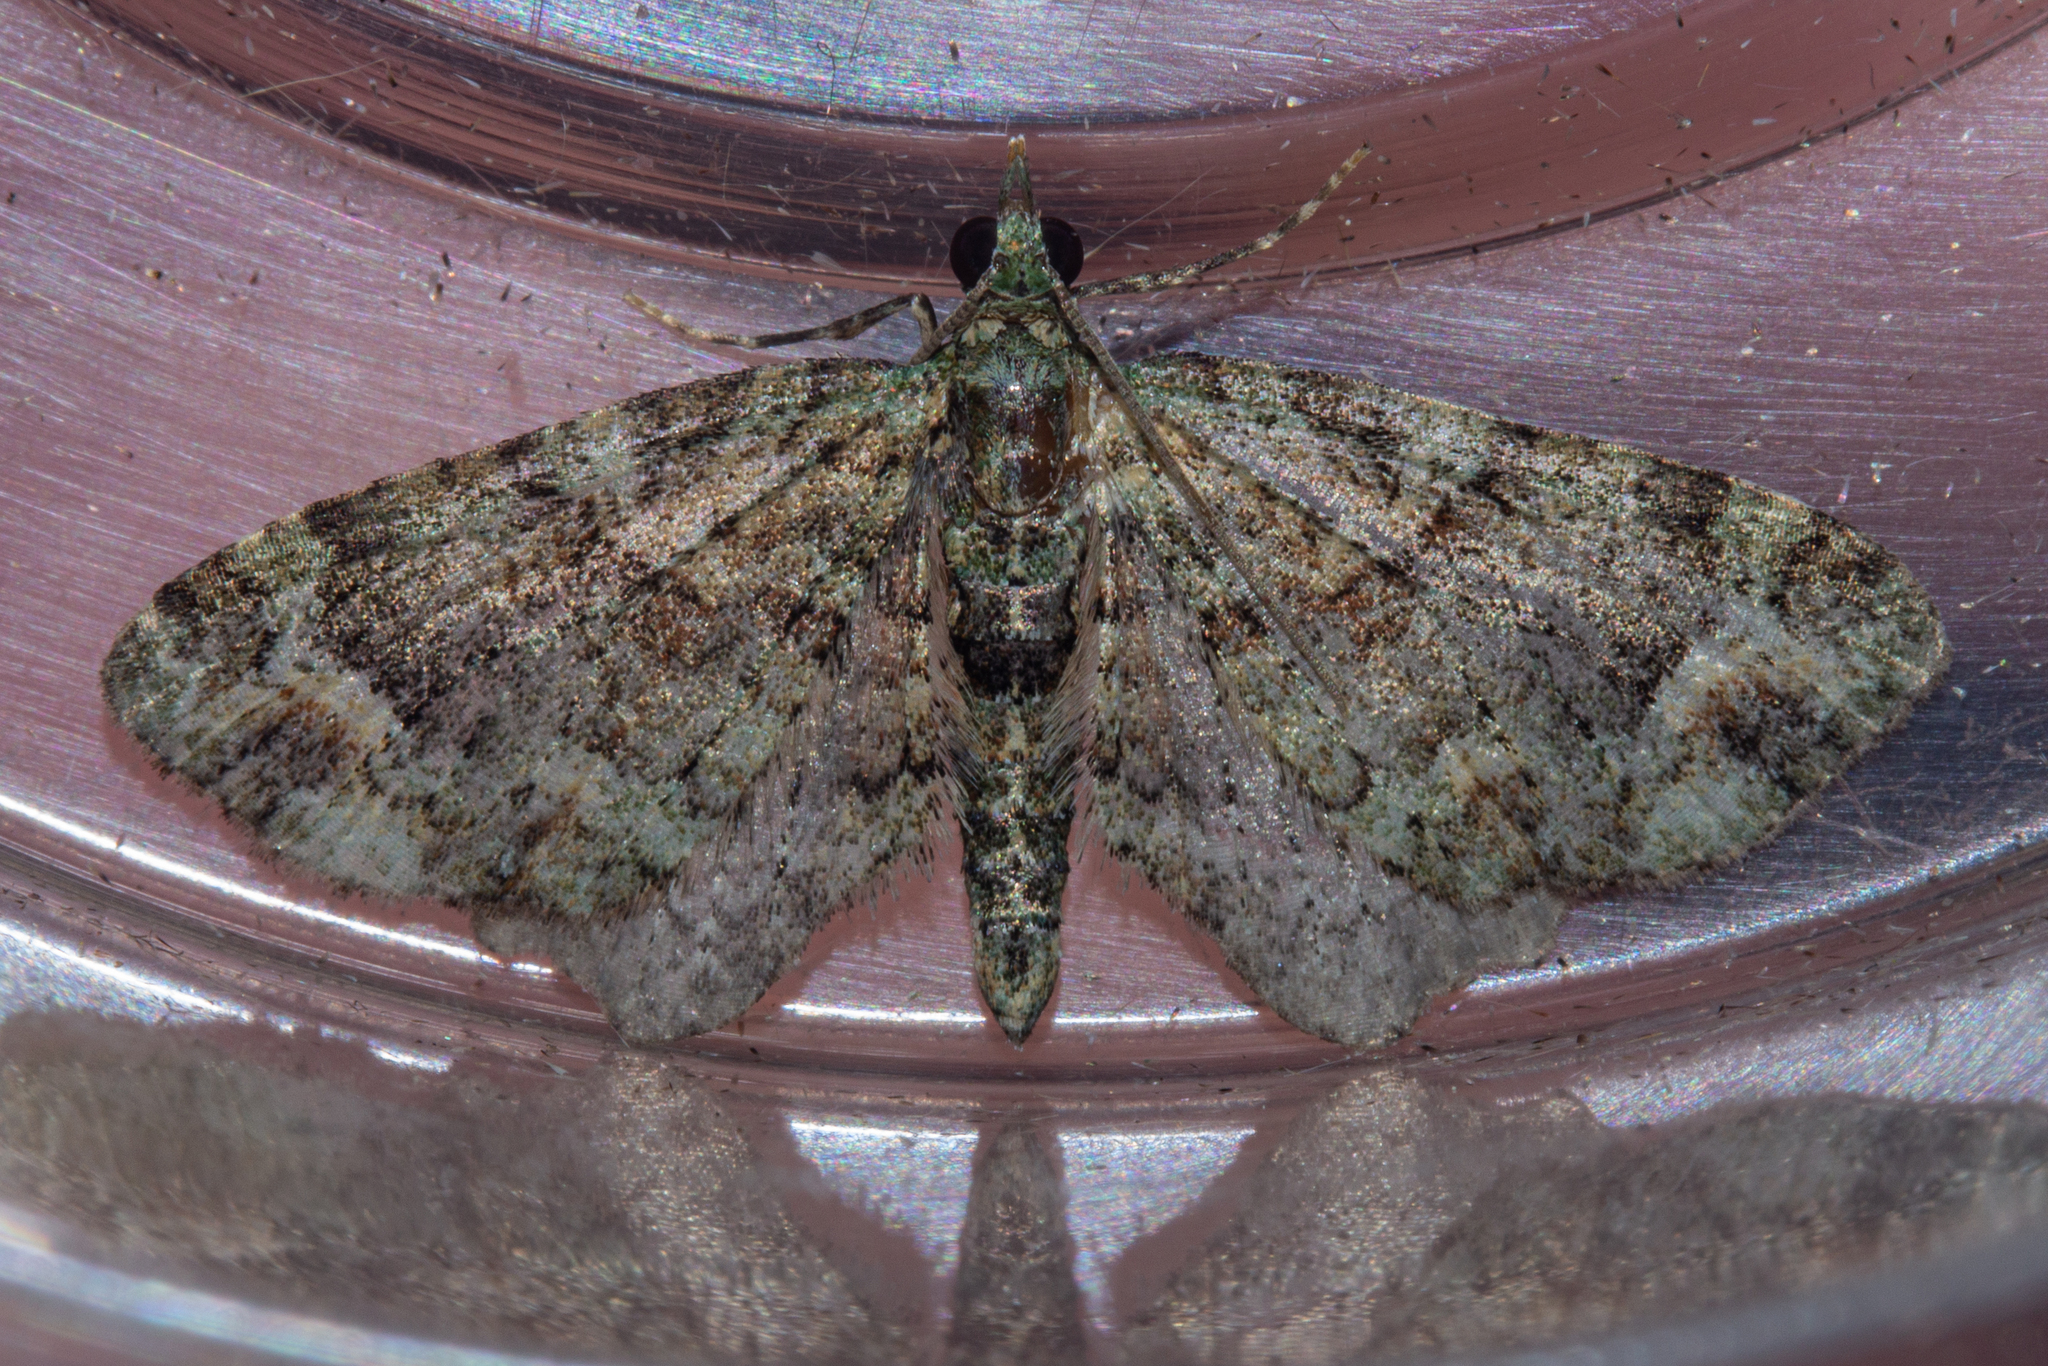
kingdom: Animalia
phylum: Arthropoda
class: Insecta
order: Lepidoptera
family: Geometridae
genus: Idaea
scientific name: Idaea mutanda
